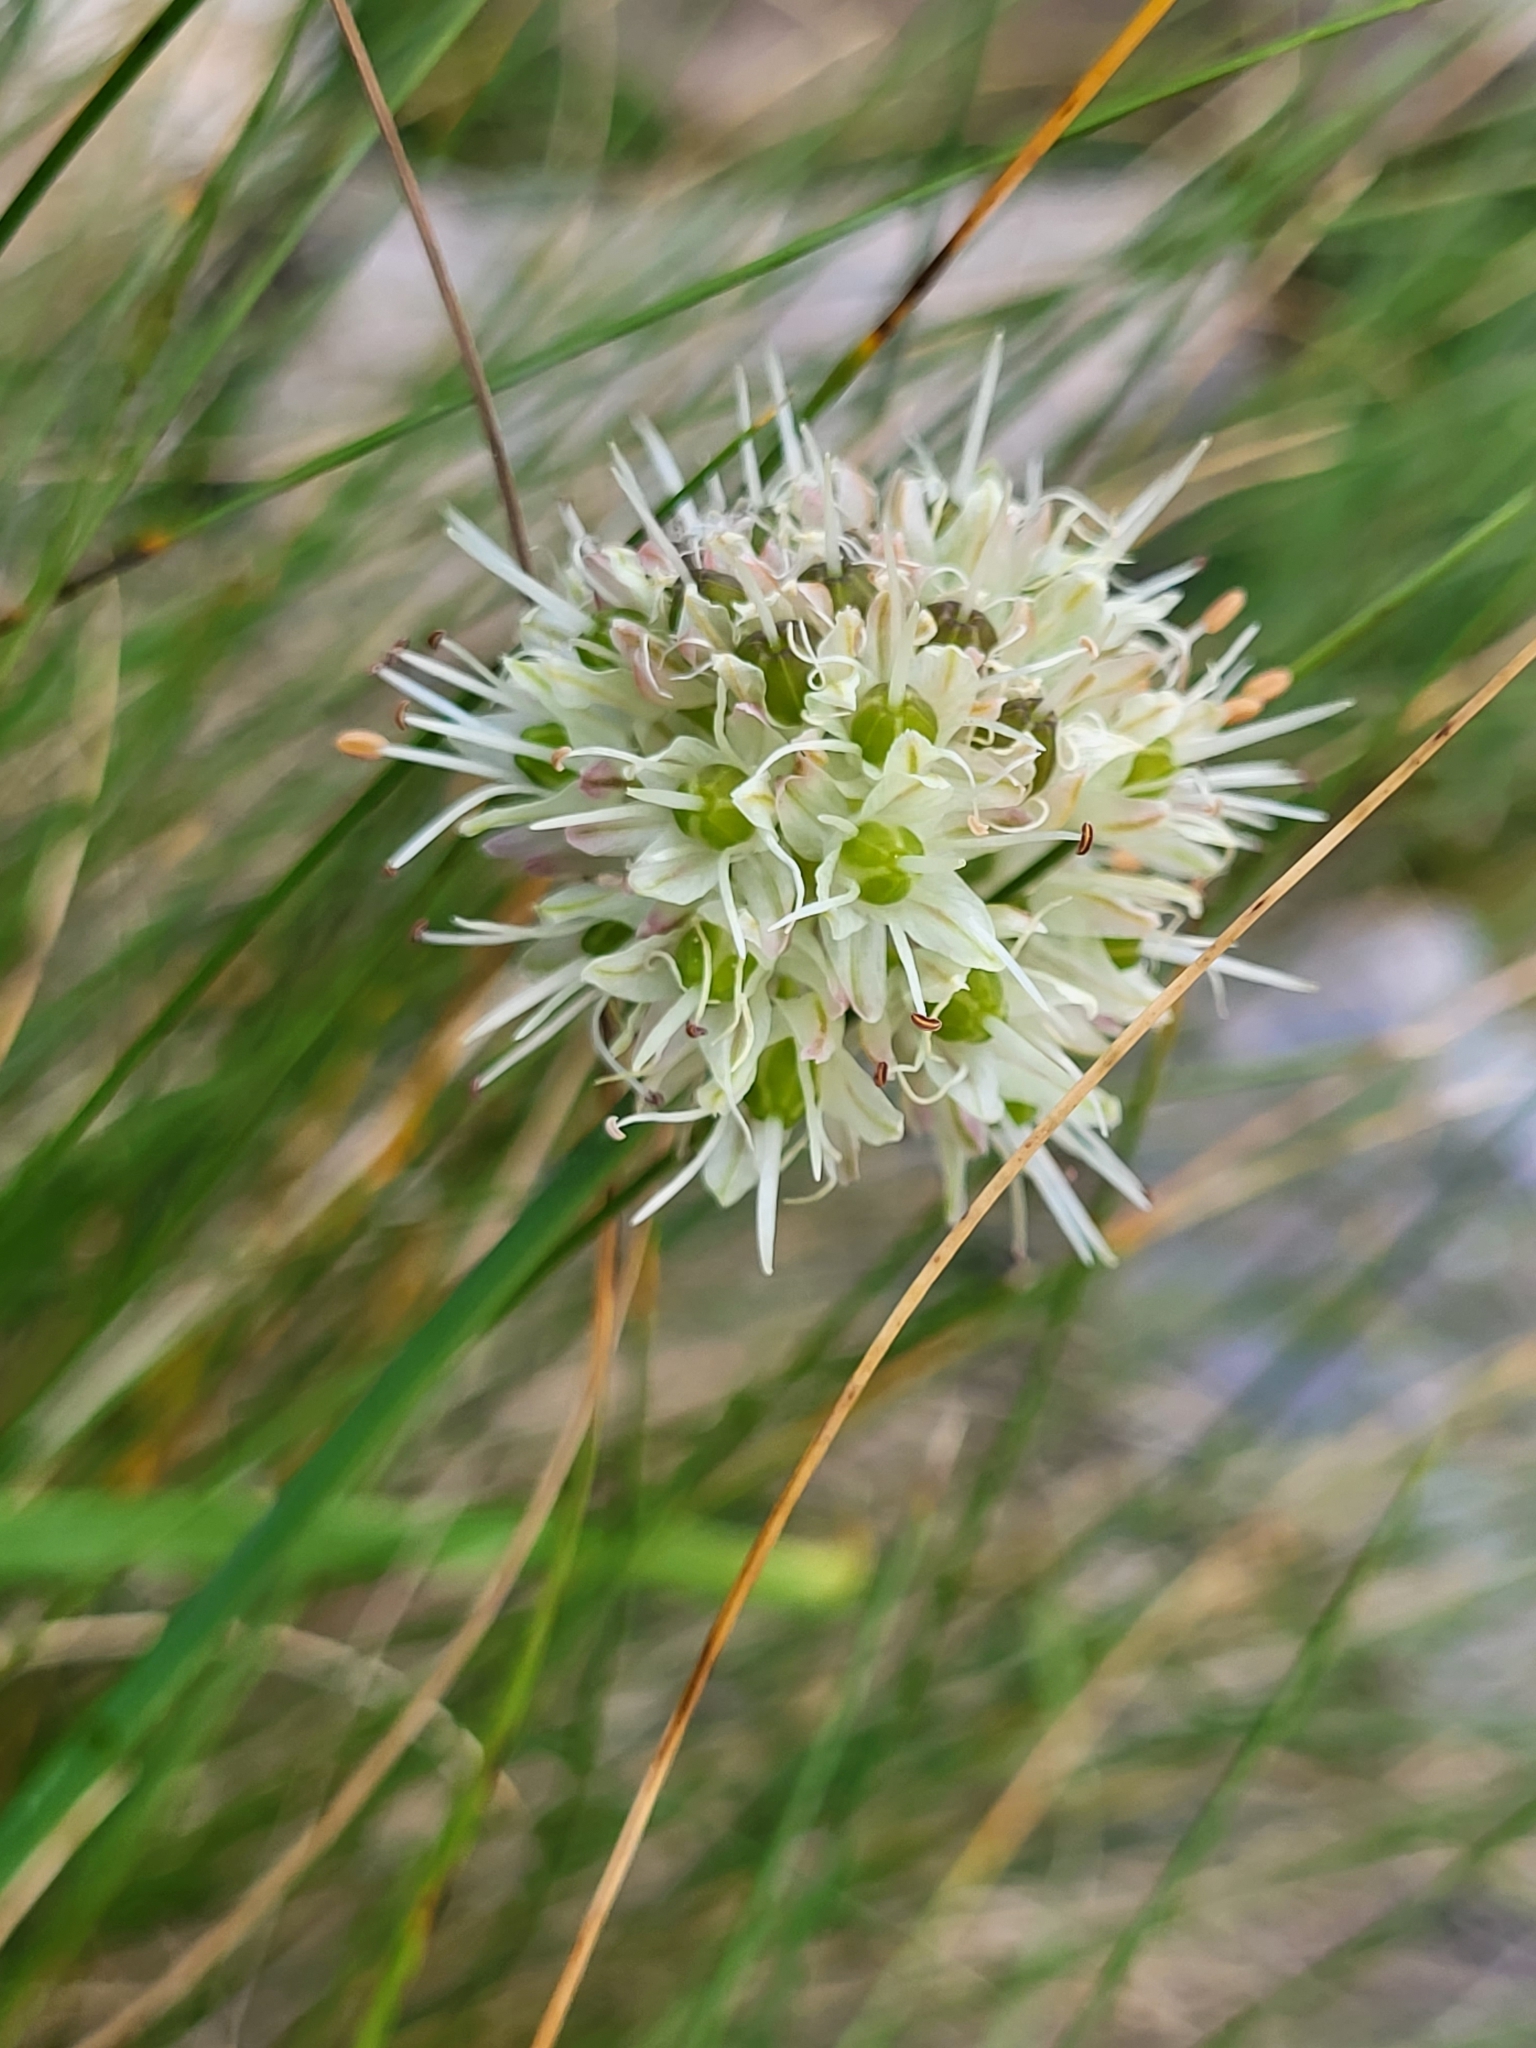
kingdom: Plantae
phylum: Tracheophyta
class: Liliopsida
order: Asparagales
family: Amaryllidaceae
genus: Allium
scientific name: Allium ericetorum
